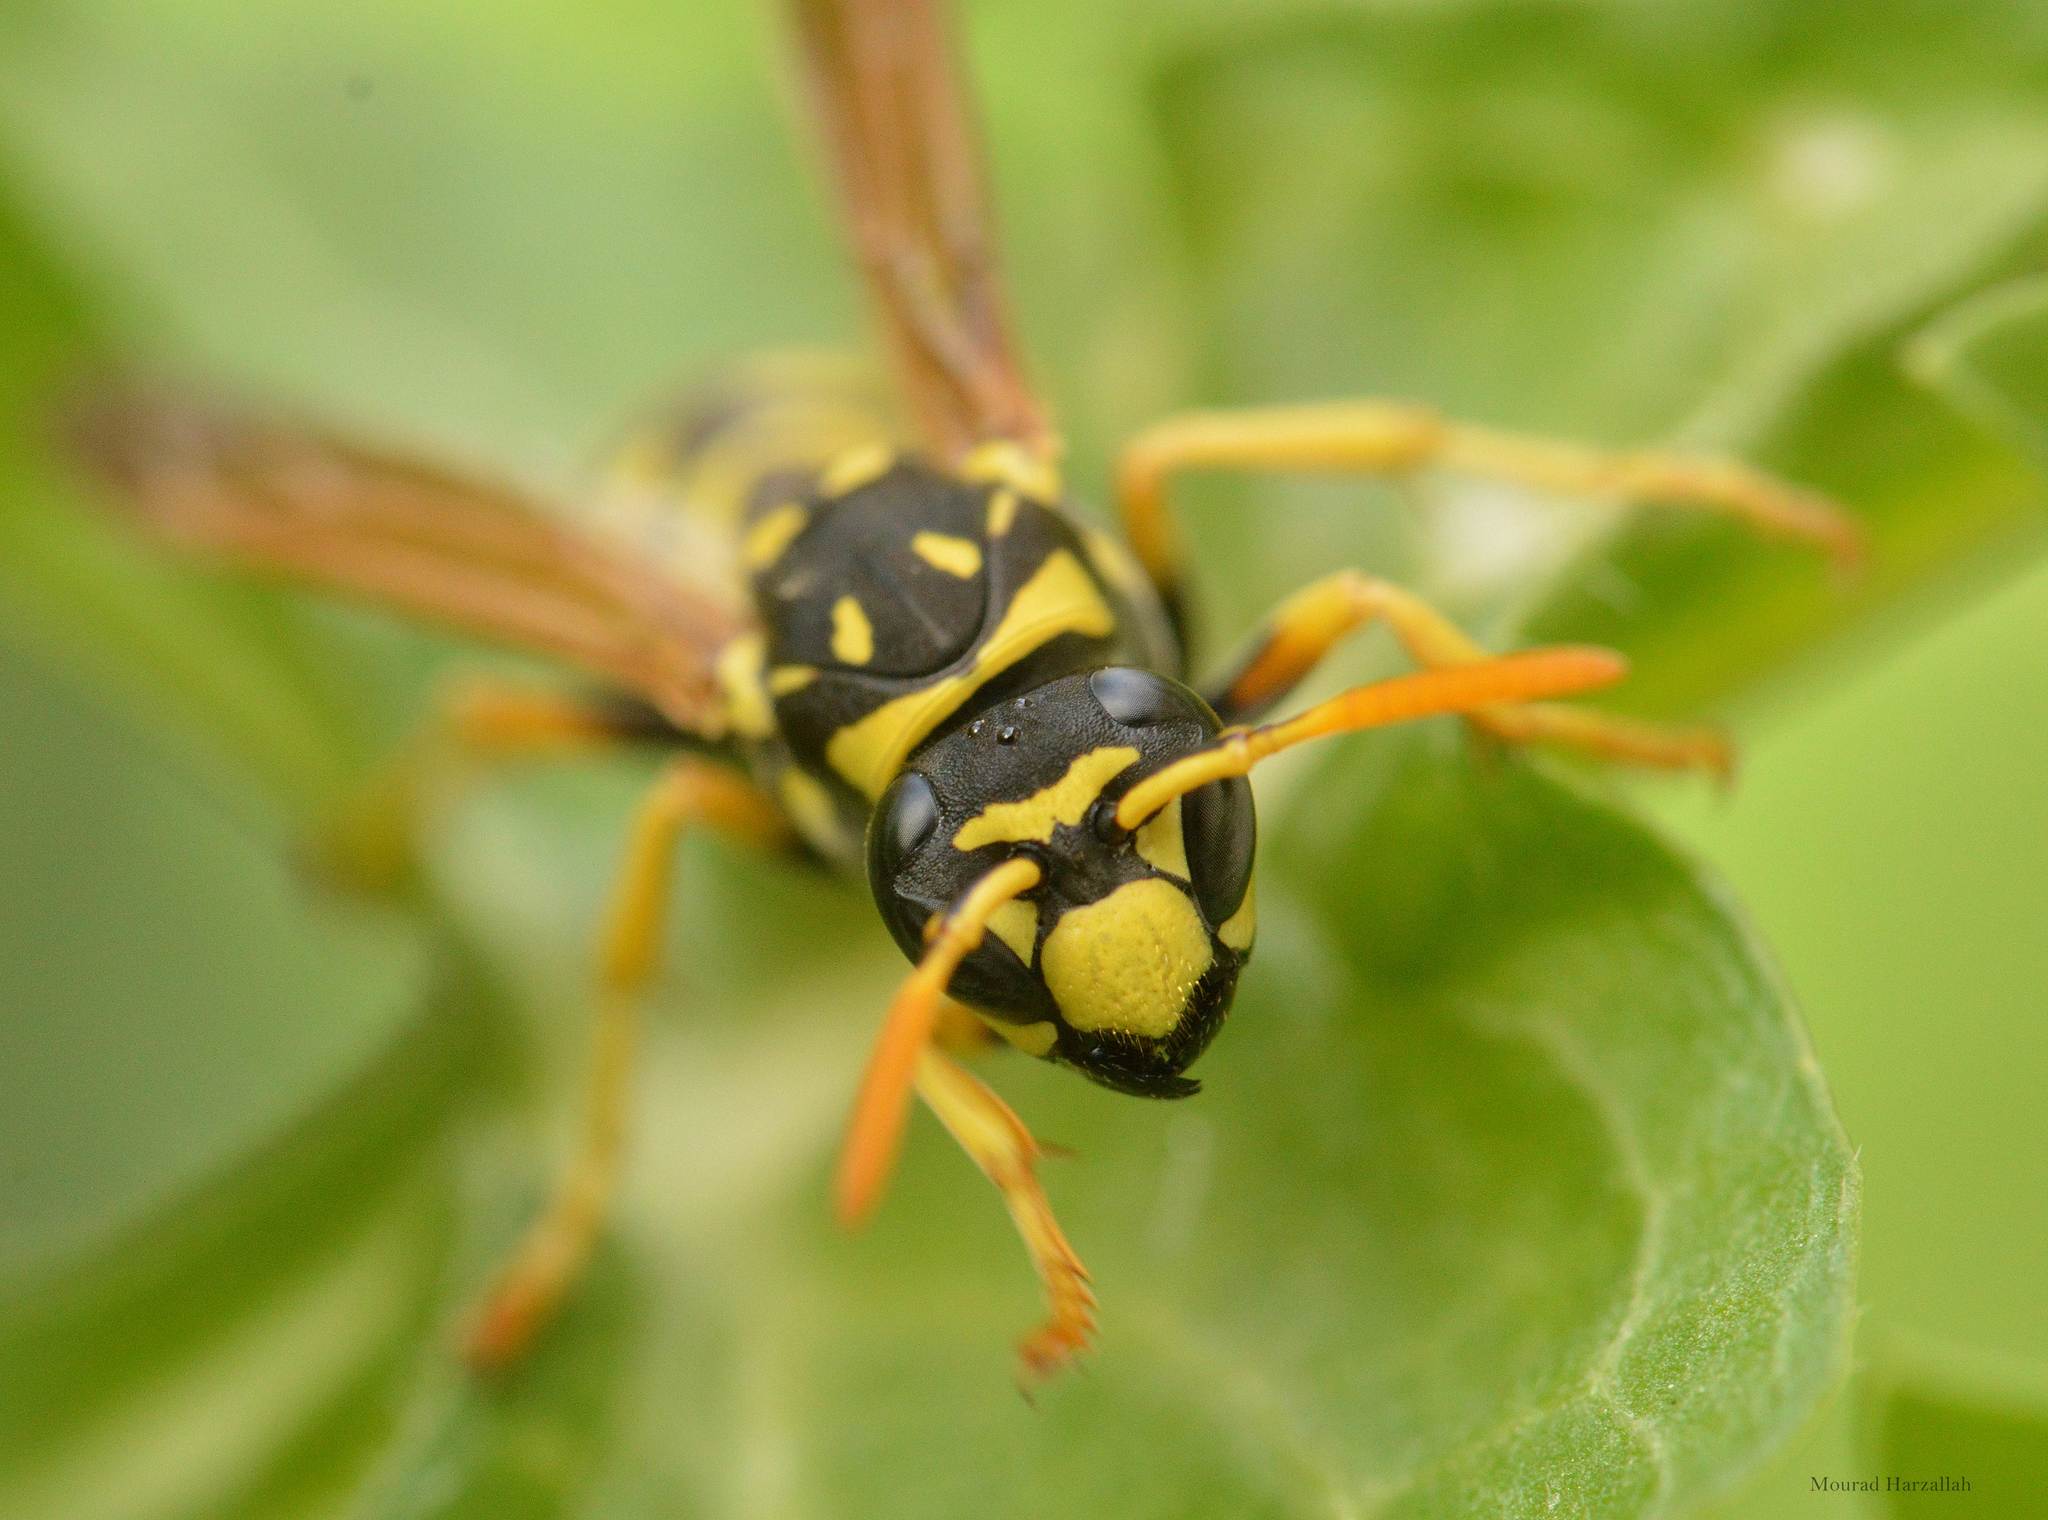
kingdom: Animalia
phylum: Arthropoda
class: Insecta
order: Hymenoptera
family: Eumenidae
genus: Polistes
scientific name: Polistes dominula
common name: Paper wasp
